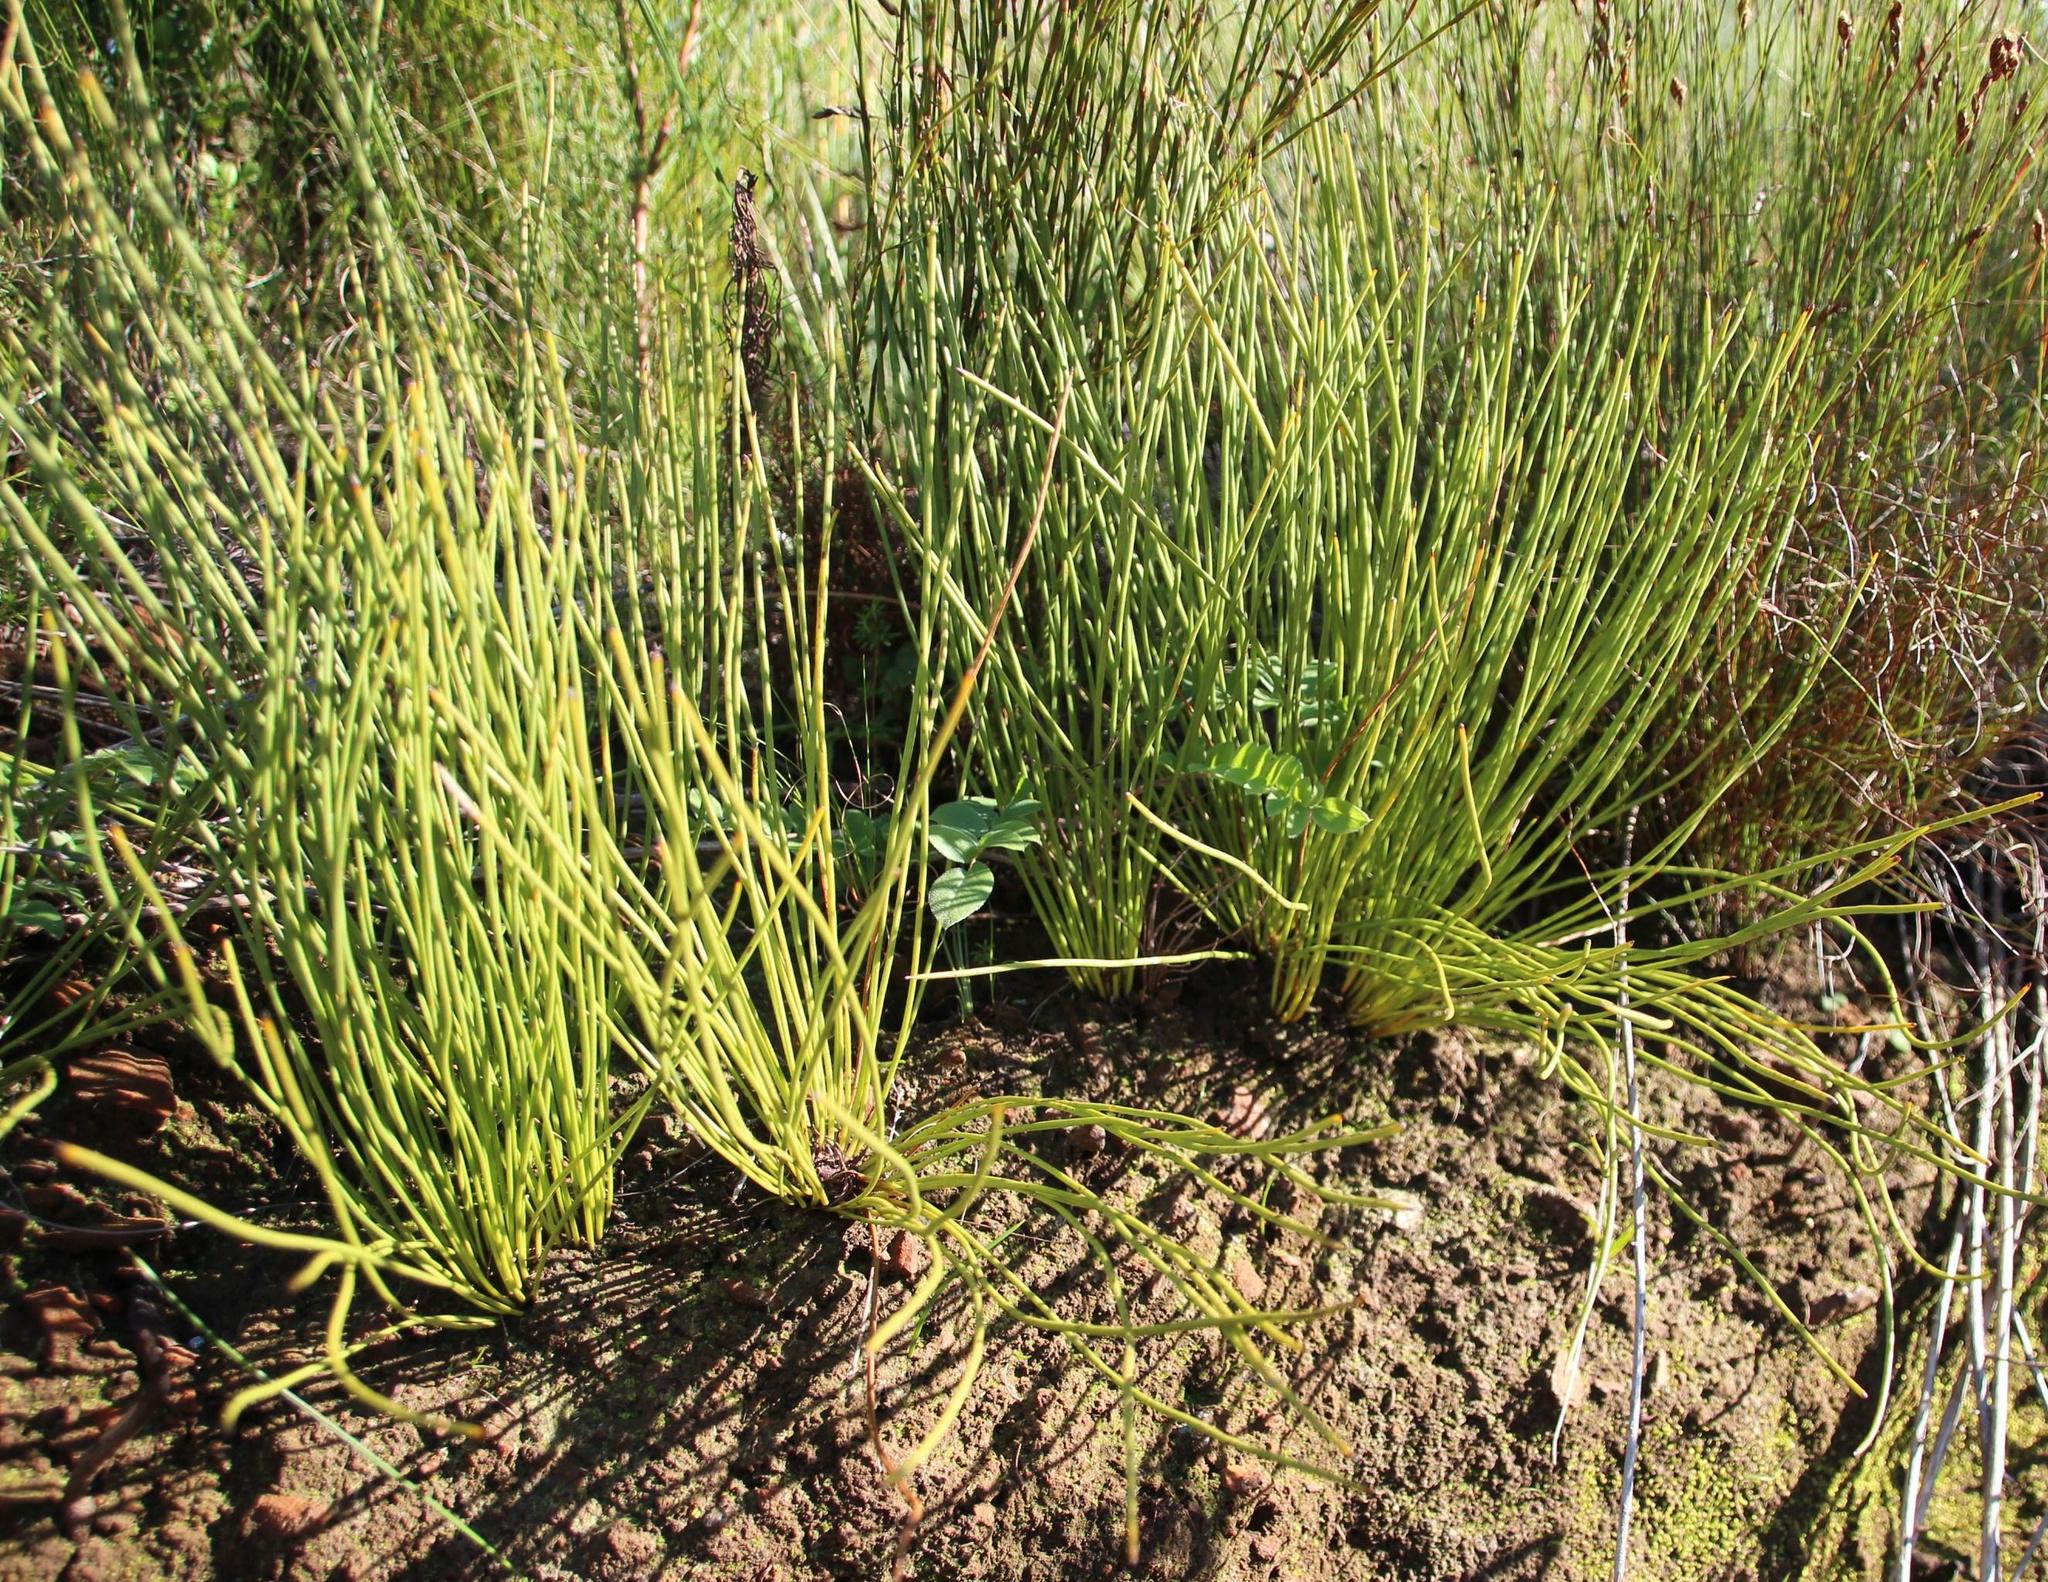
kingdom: Plantae
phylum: Tracheophyta
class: Magnoliopsida
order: Proteales
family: Proteaceae
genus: Protea
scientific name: Protea lorea
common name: Thong-leaf sugarbush
